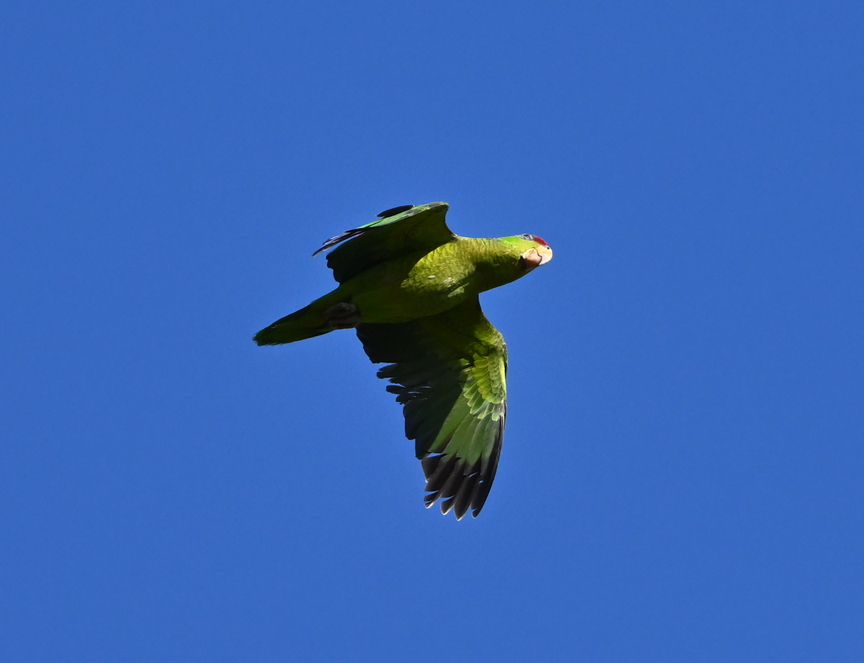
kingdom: Animalia
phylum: Chordata
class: Aves
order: Psittaciformes
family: Psittacidae
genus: Amazona
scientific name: Amazona finschi
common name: Lilac-crowned amazon
